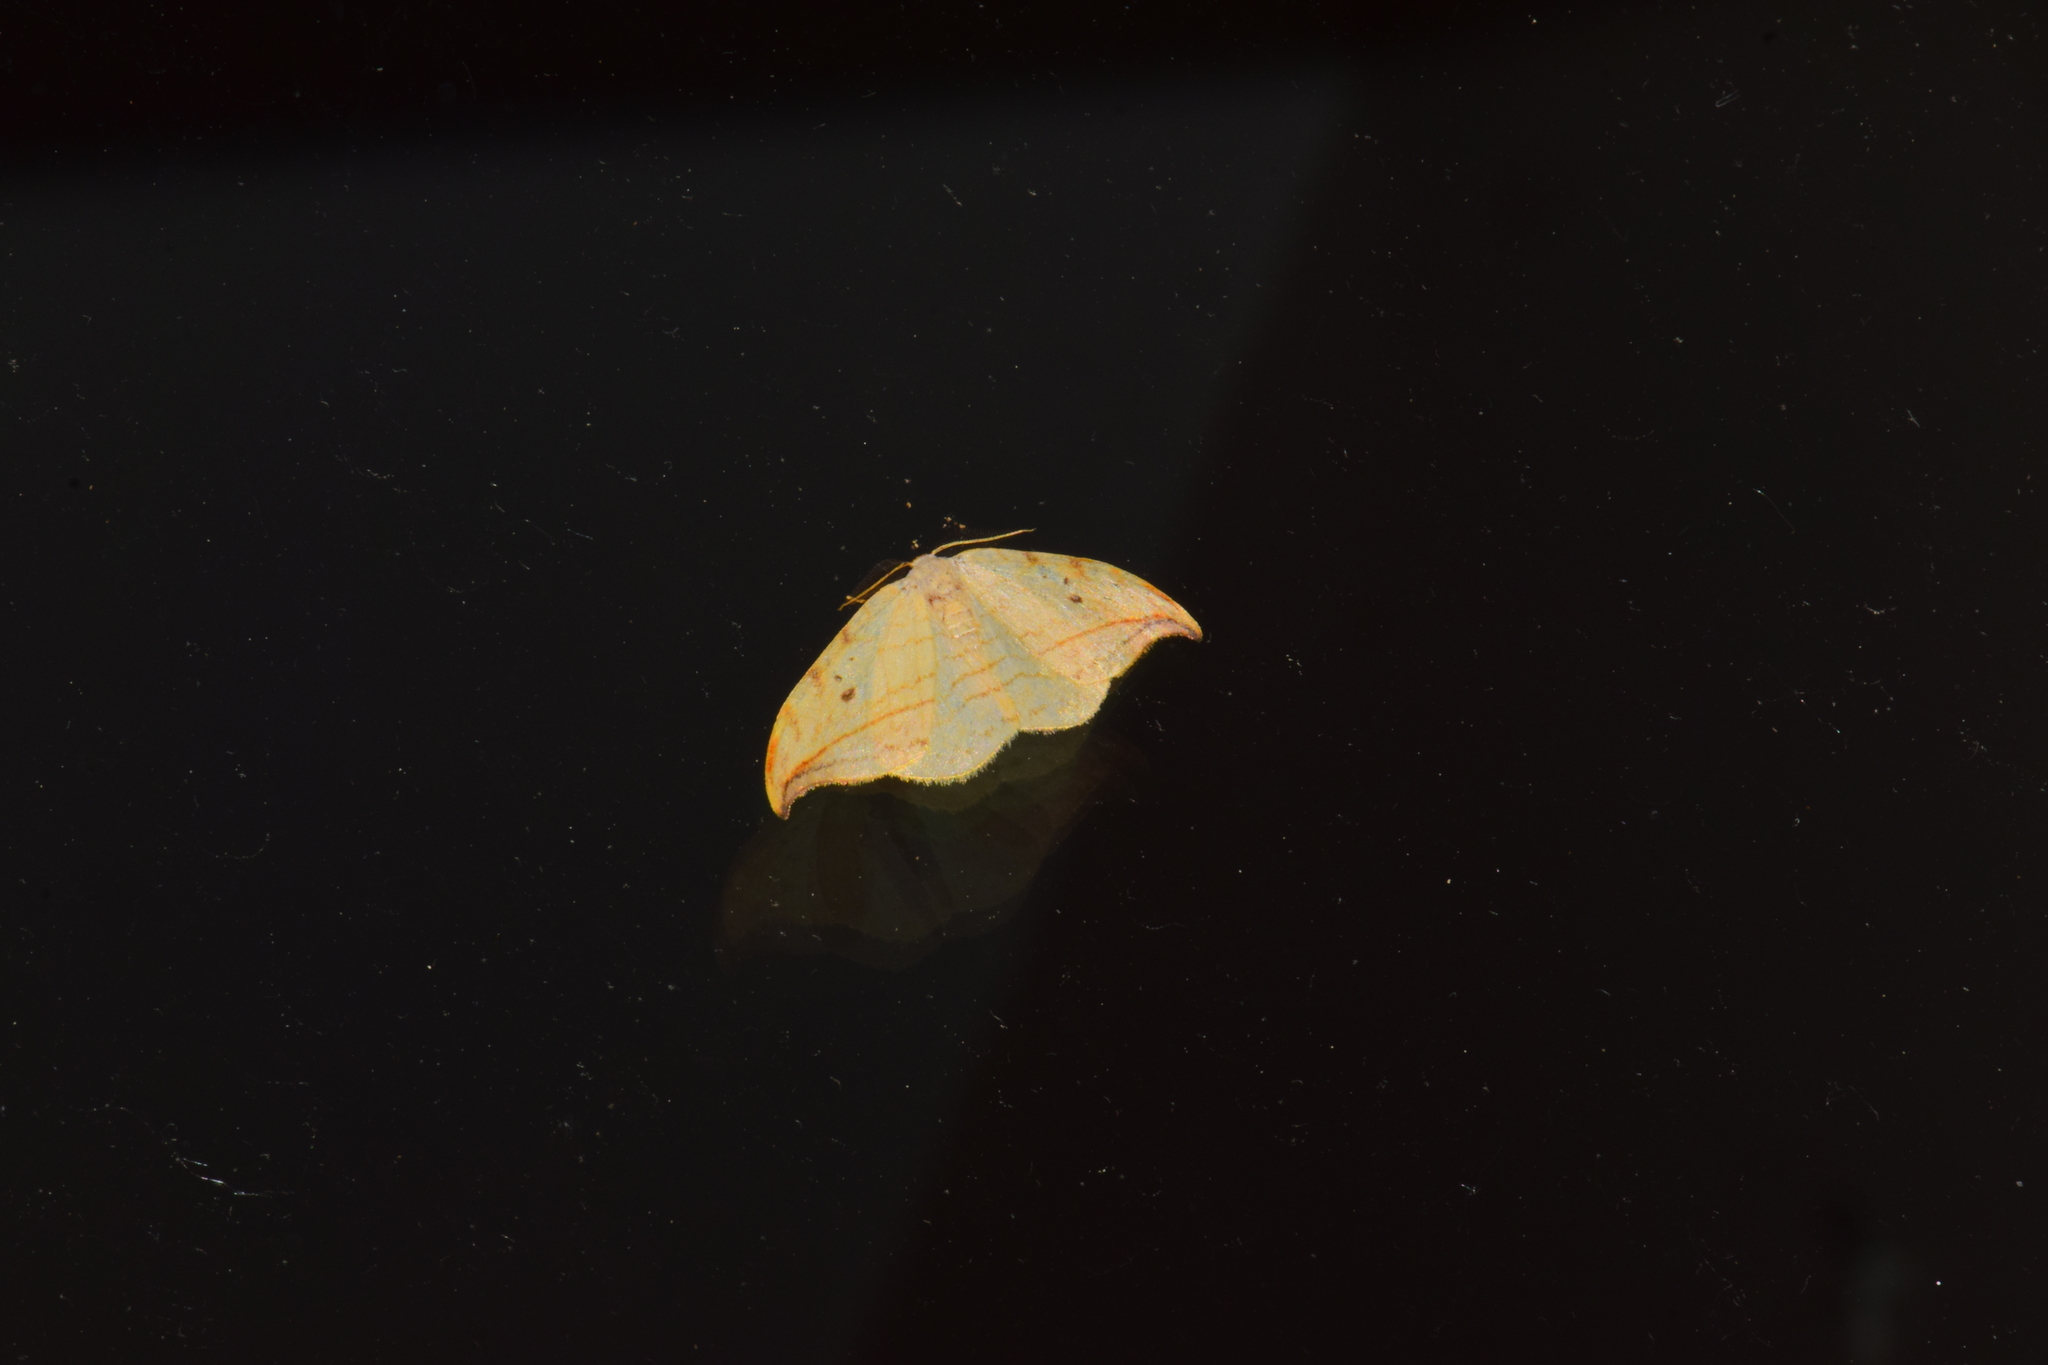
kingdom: Animalia
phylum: Arthropoda
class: Insecta
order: Lepidoptera
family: Drepanidae
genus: Drepana
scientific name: Drepana arcuata
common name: Arched hooktip moth
